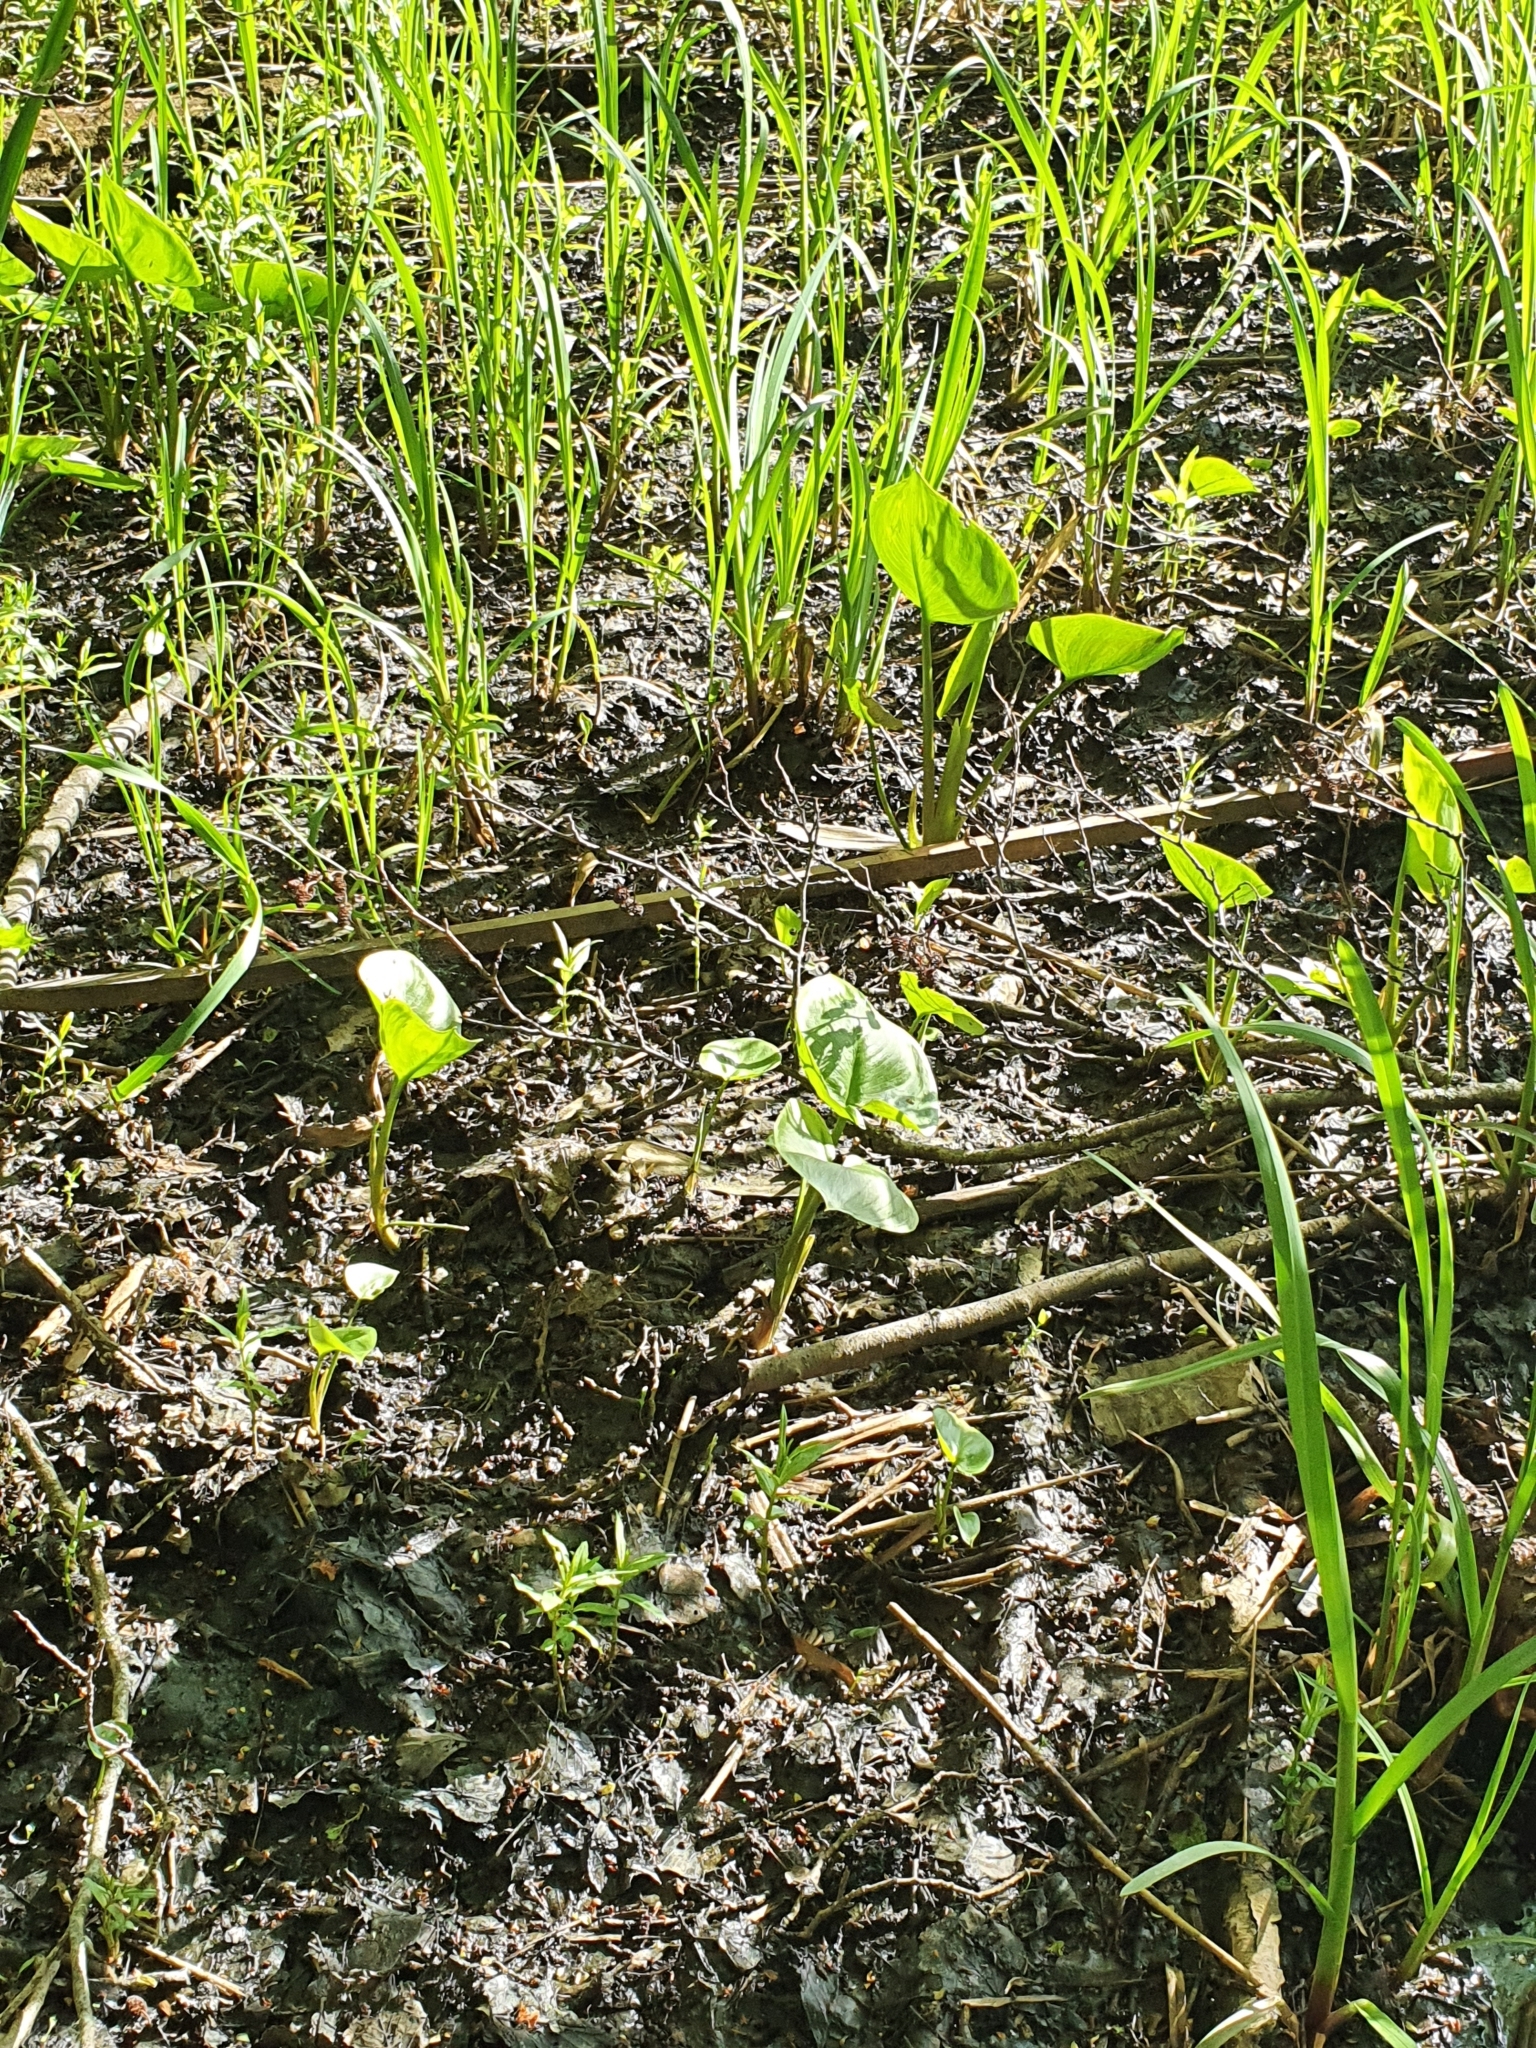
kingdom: Plantae
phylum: Tracheophyta
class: Liliopsida
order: Alismatales
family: Araceae
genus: Calla
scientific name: Calla palustris
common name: Bog arum
